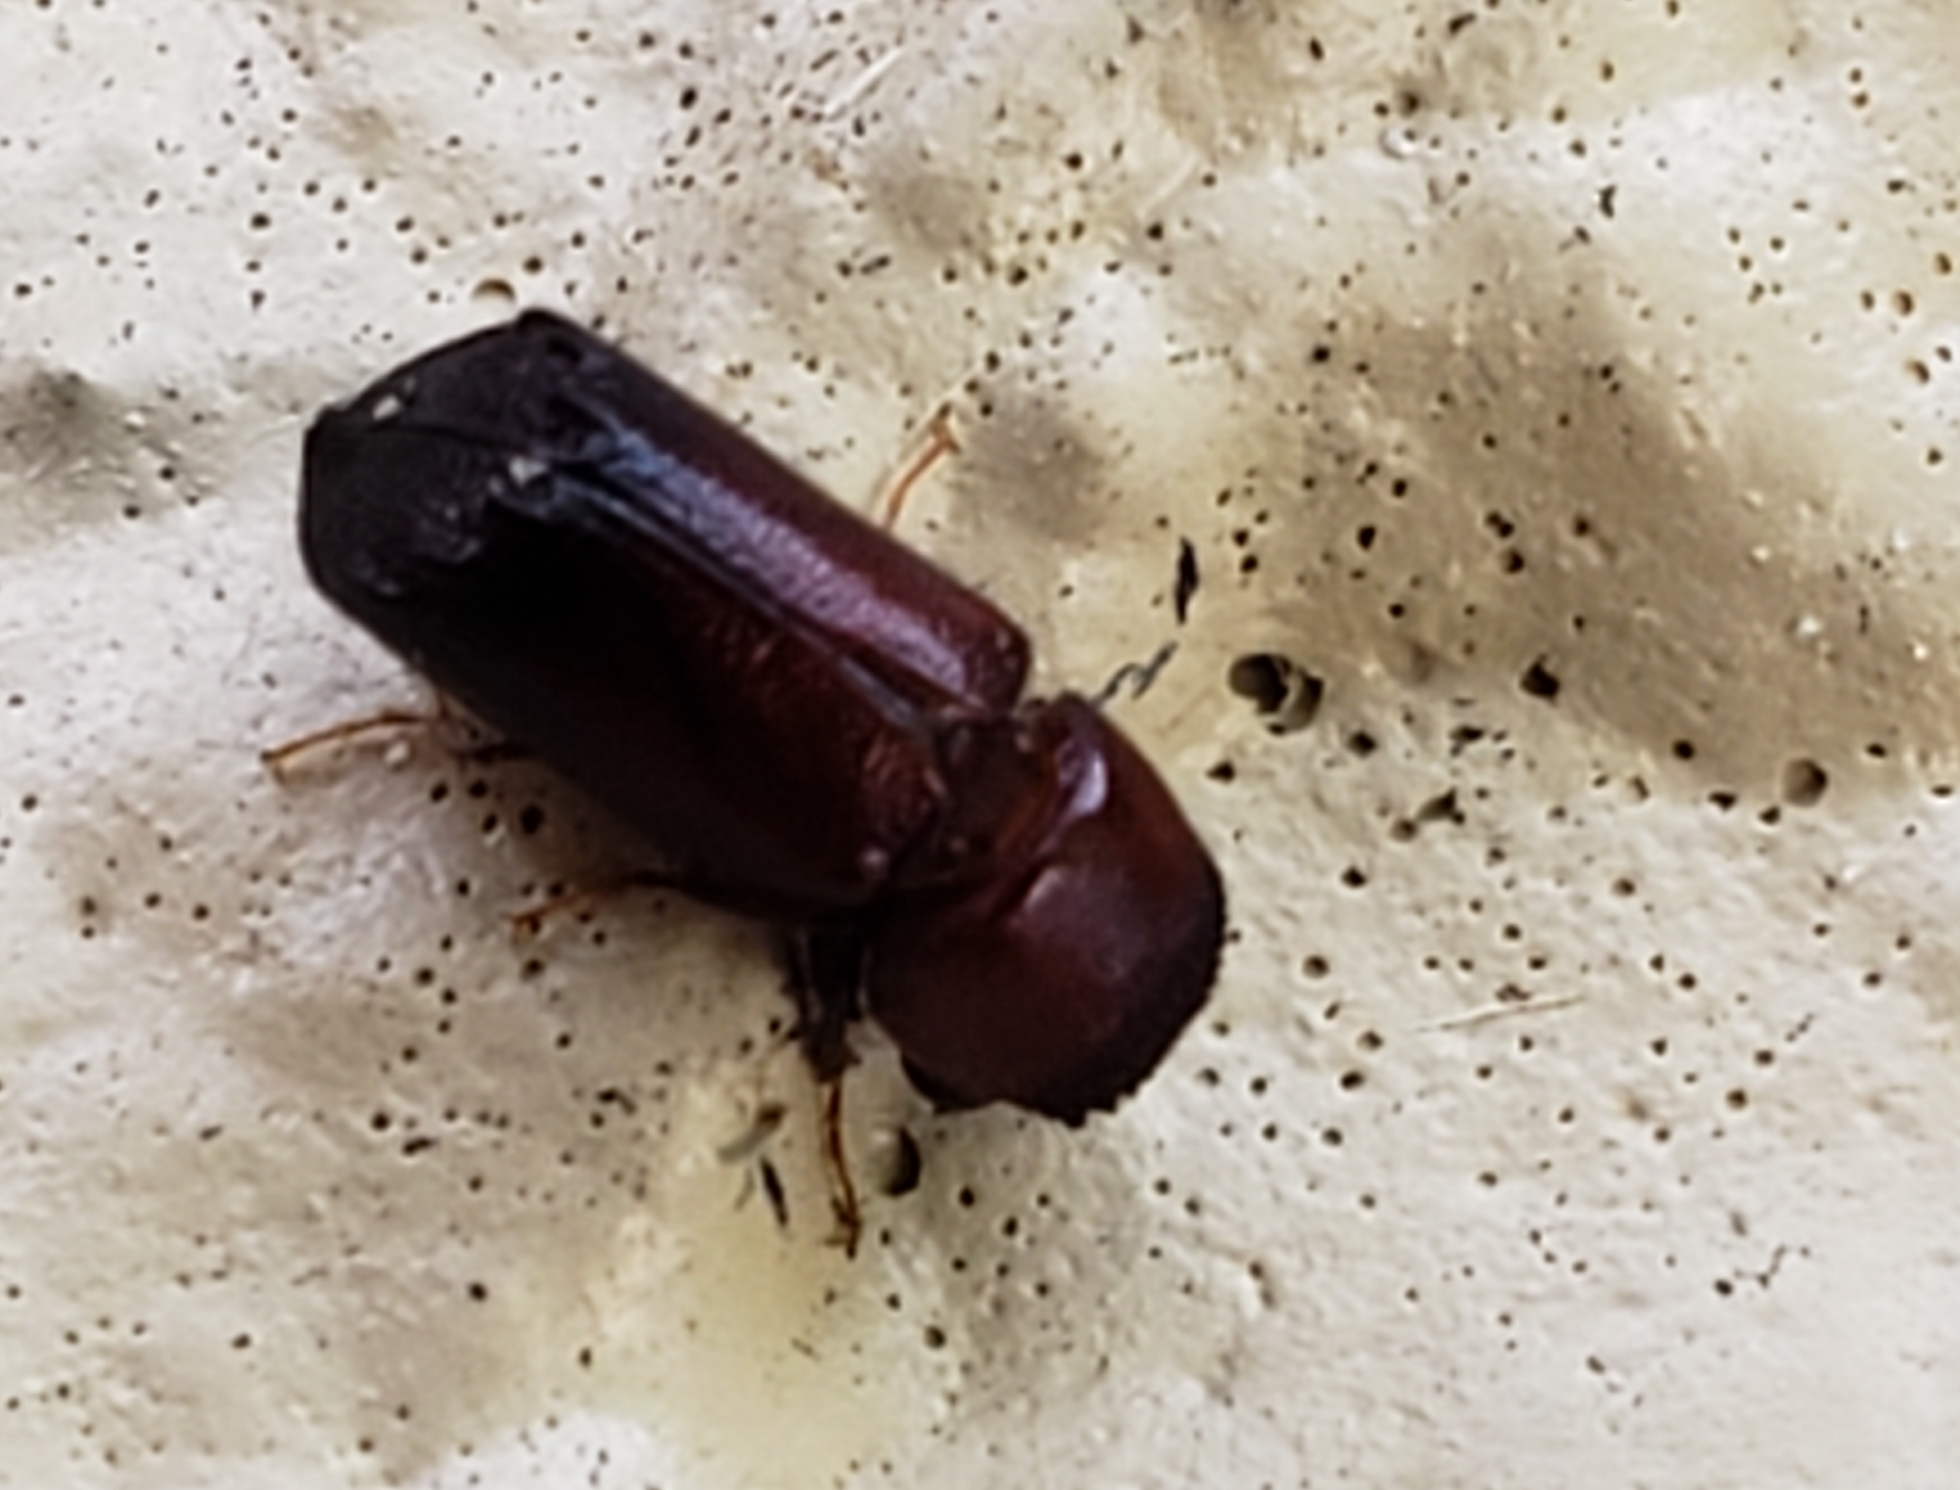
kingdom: Animalia
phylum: Arthropoda
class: Insecta
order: Coleoptera
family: Bostrichidae
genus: Xylobiops
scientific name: Xylobiops basilaris
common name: Red-shouldered bostrichid
